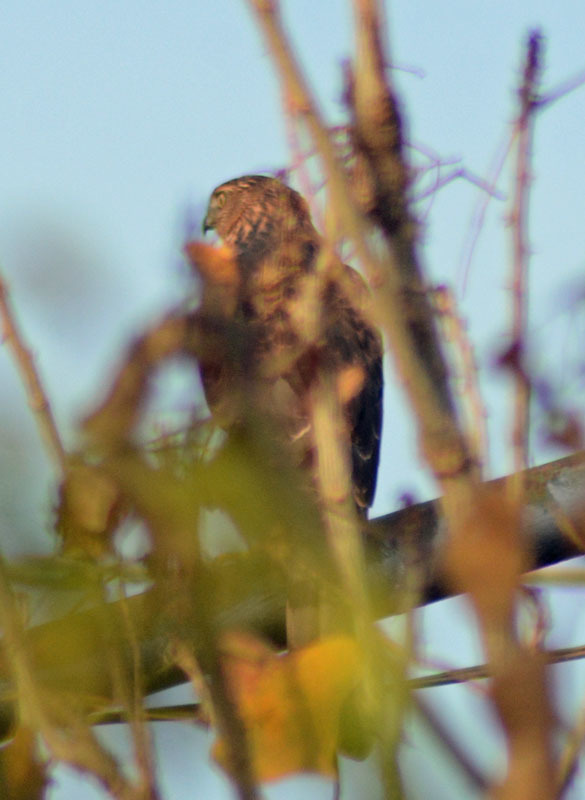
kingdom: Animalia
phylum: Chordata
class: Aves
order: Accipitriformes
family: Accipitridae
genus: Accipiter
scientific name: Accipiter cooperii
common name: Cooper's hawk
